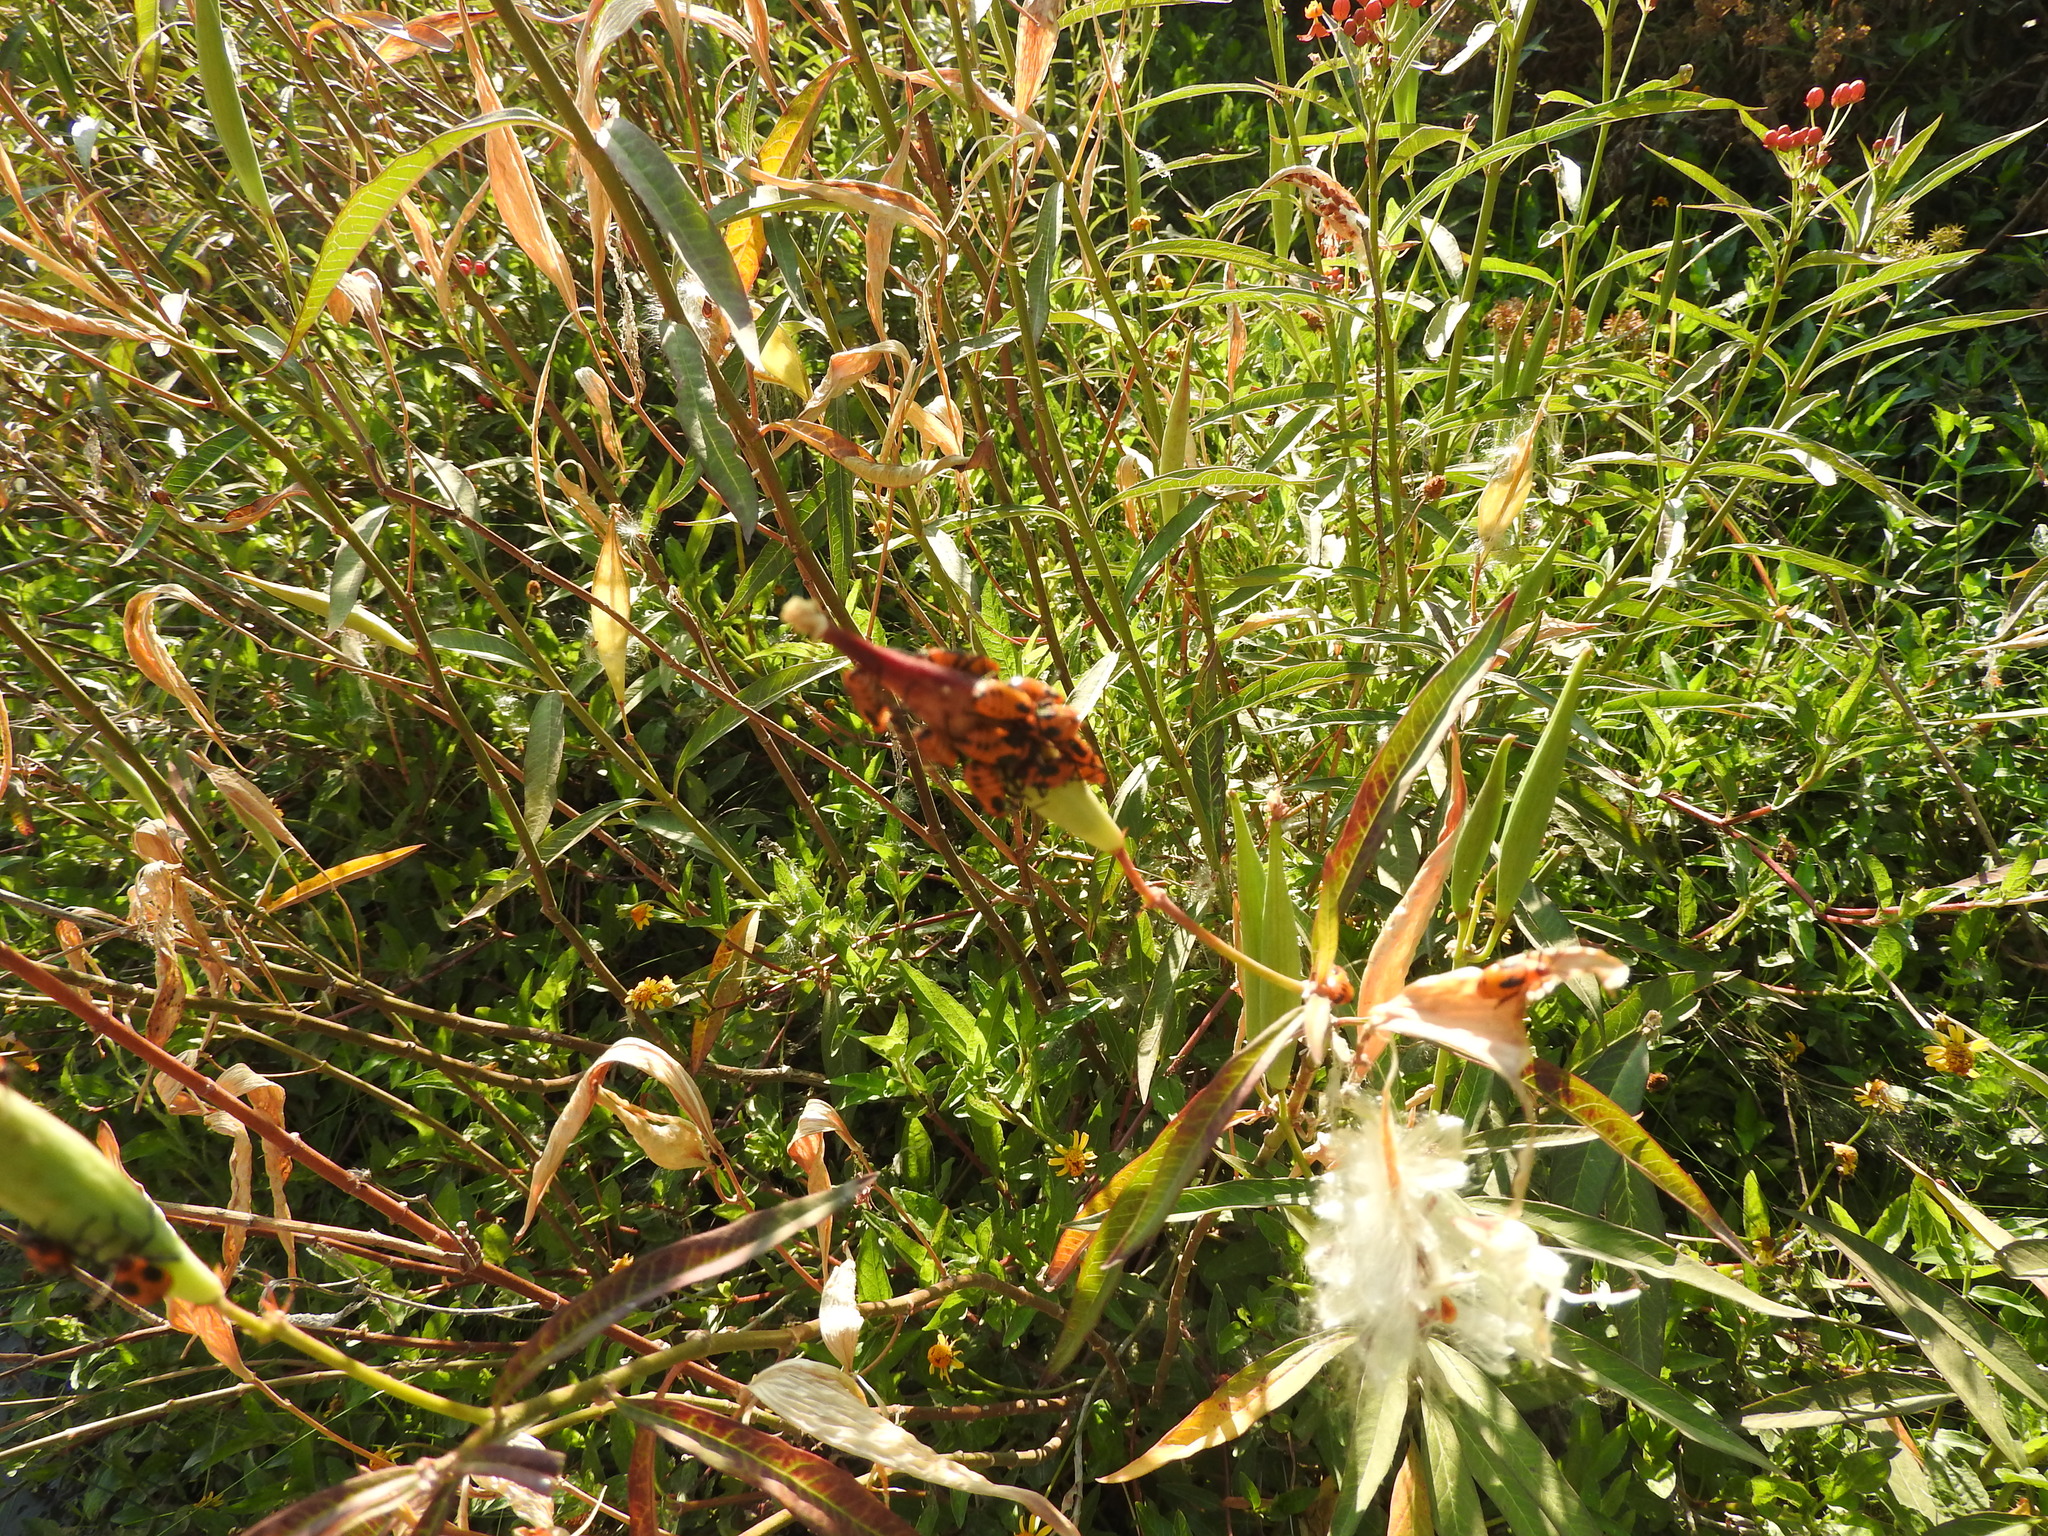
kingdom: Animalia
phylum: Arthropoda
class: Insecta
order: Hemiptera
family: Lygaeidae
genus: Oncopeltus
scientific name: Oncopeltus fasciatus
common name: Large milkweed bug
